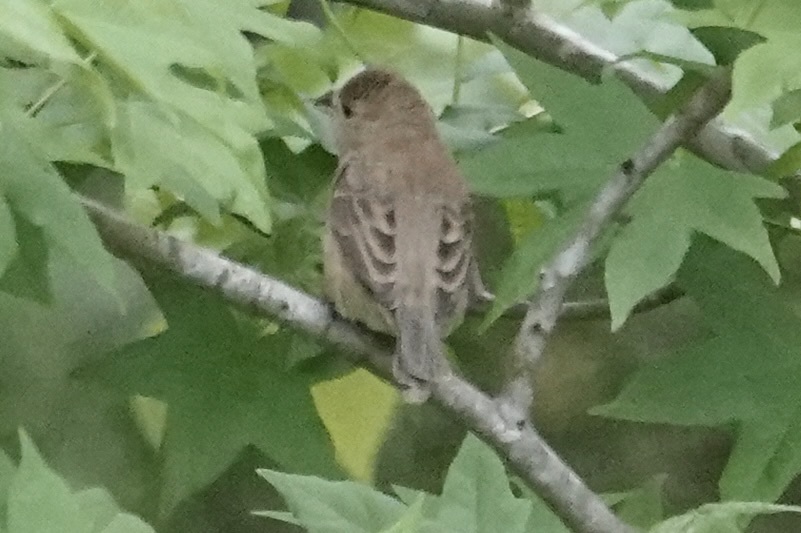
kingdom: Animalia
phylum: Chordata
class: Aves
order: Passeriformes
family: Cardinalidae
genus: Passerina
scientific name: Passerina cyanea
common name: Indigo bunting
